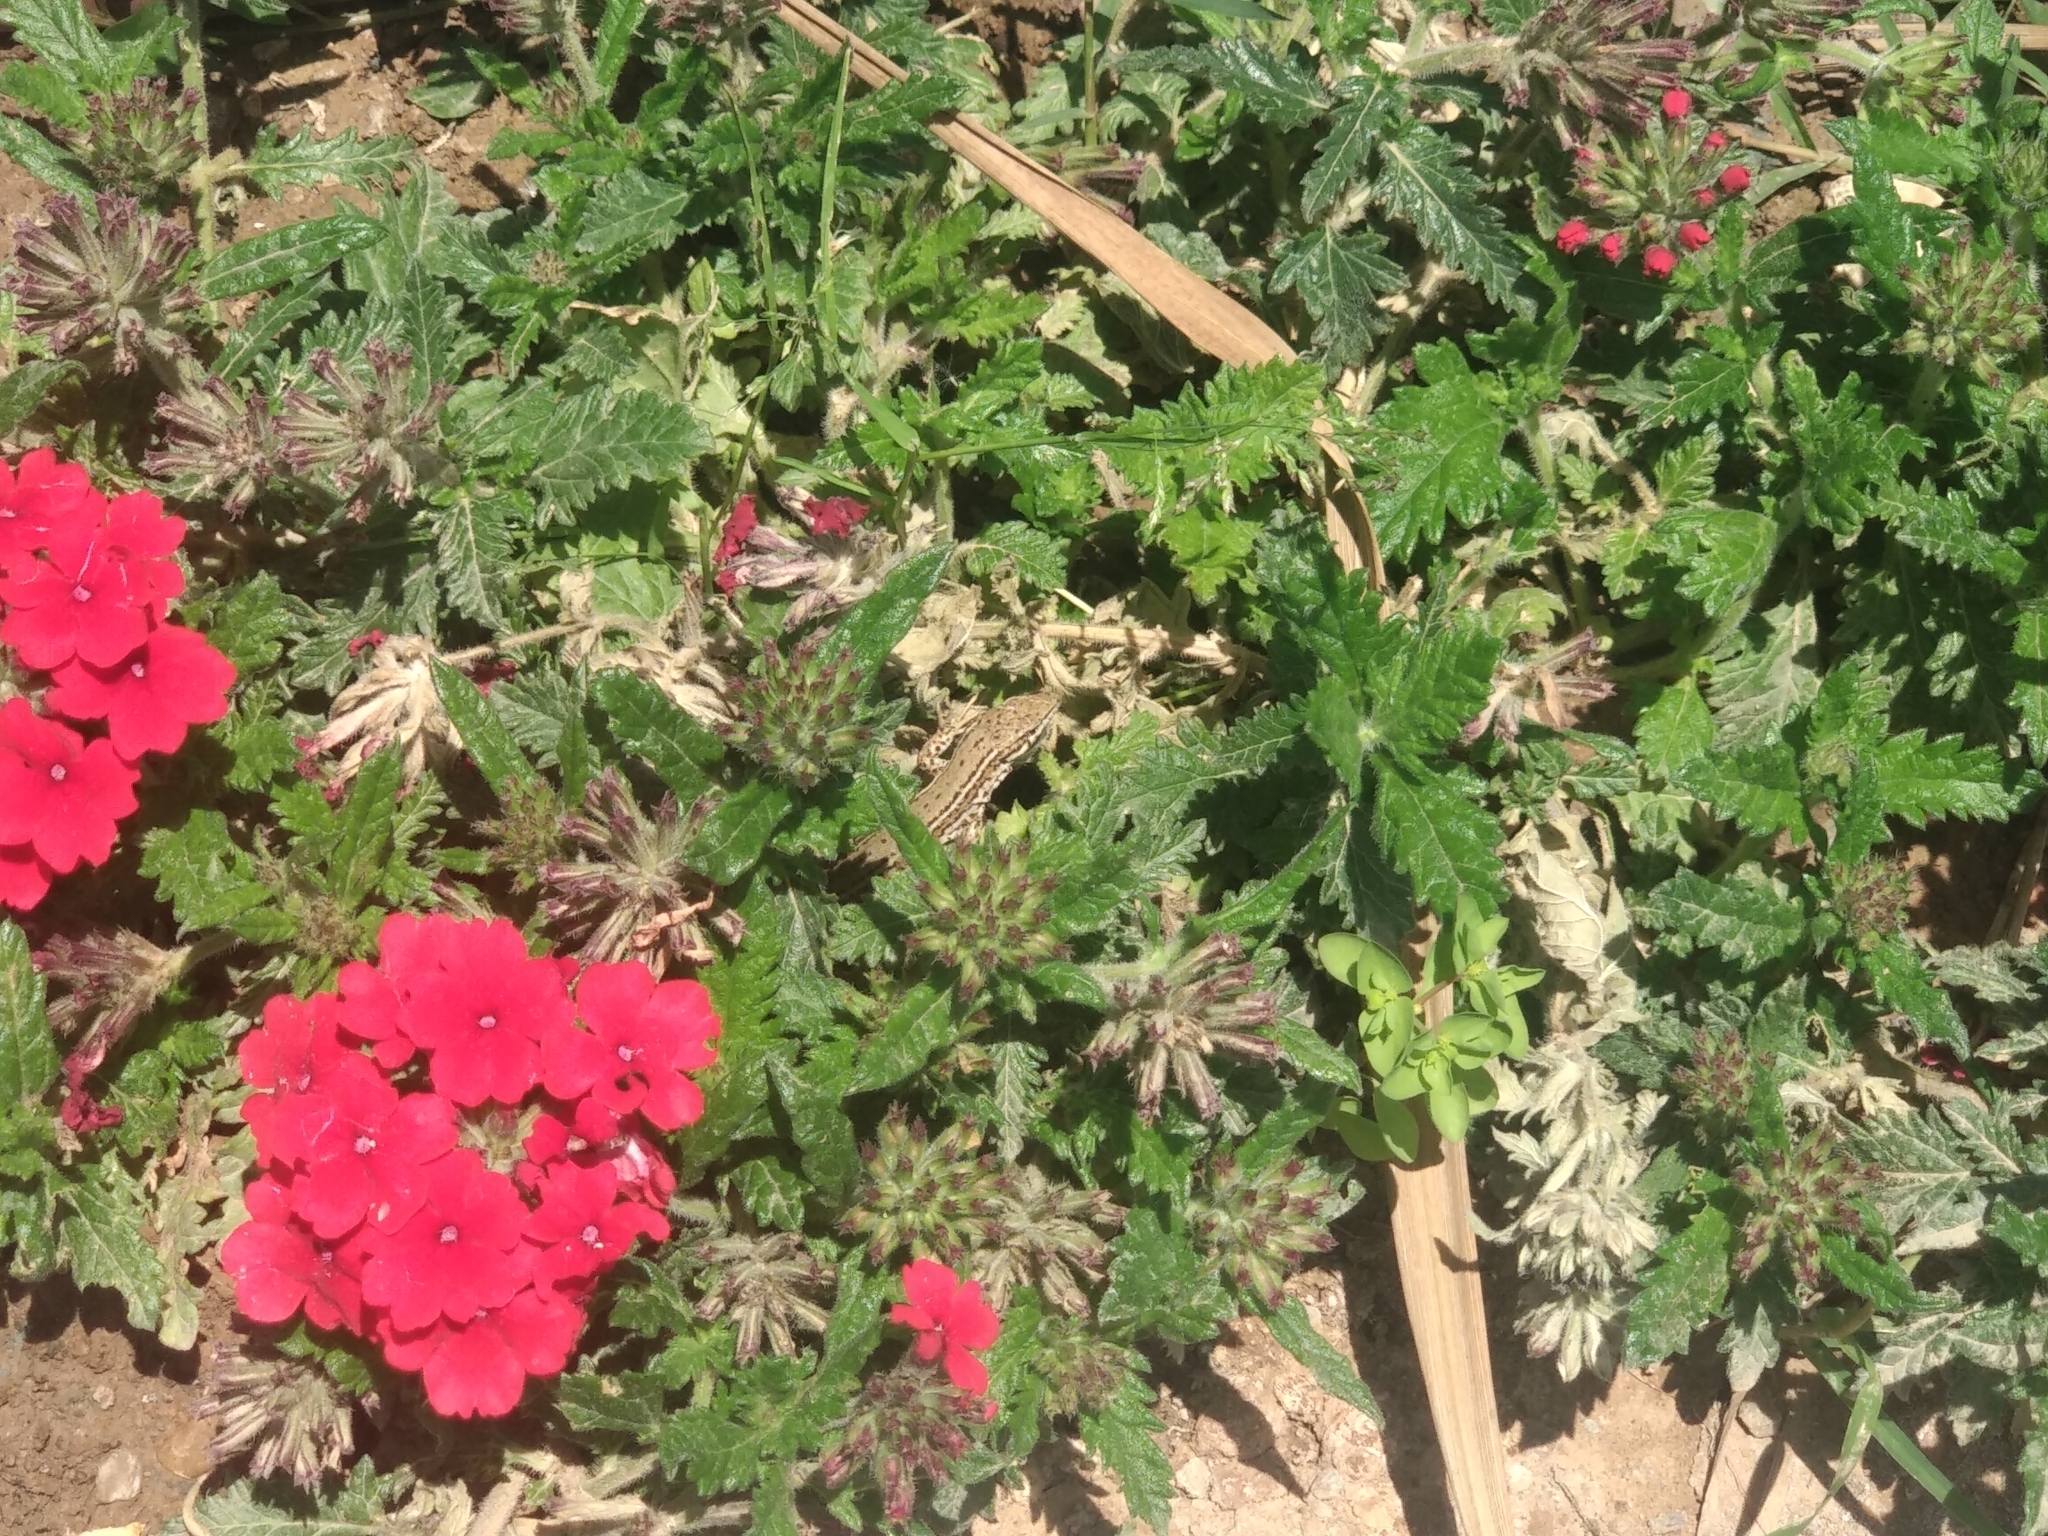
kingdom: Animalia
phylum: Chordata
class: Squamata
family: Lacertidae
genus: Podarcis
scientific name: Podarcis liolepis
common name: Catalonian wall lizard
